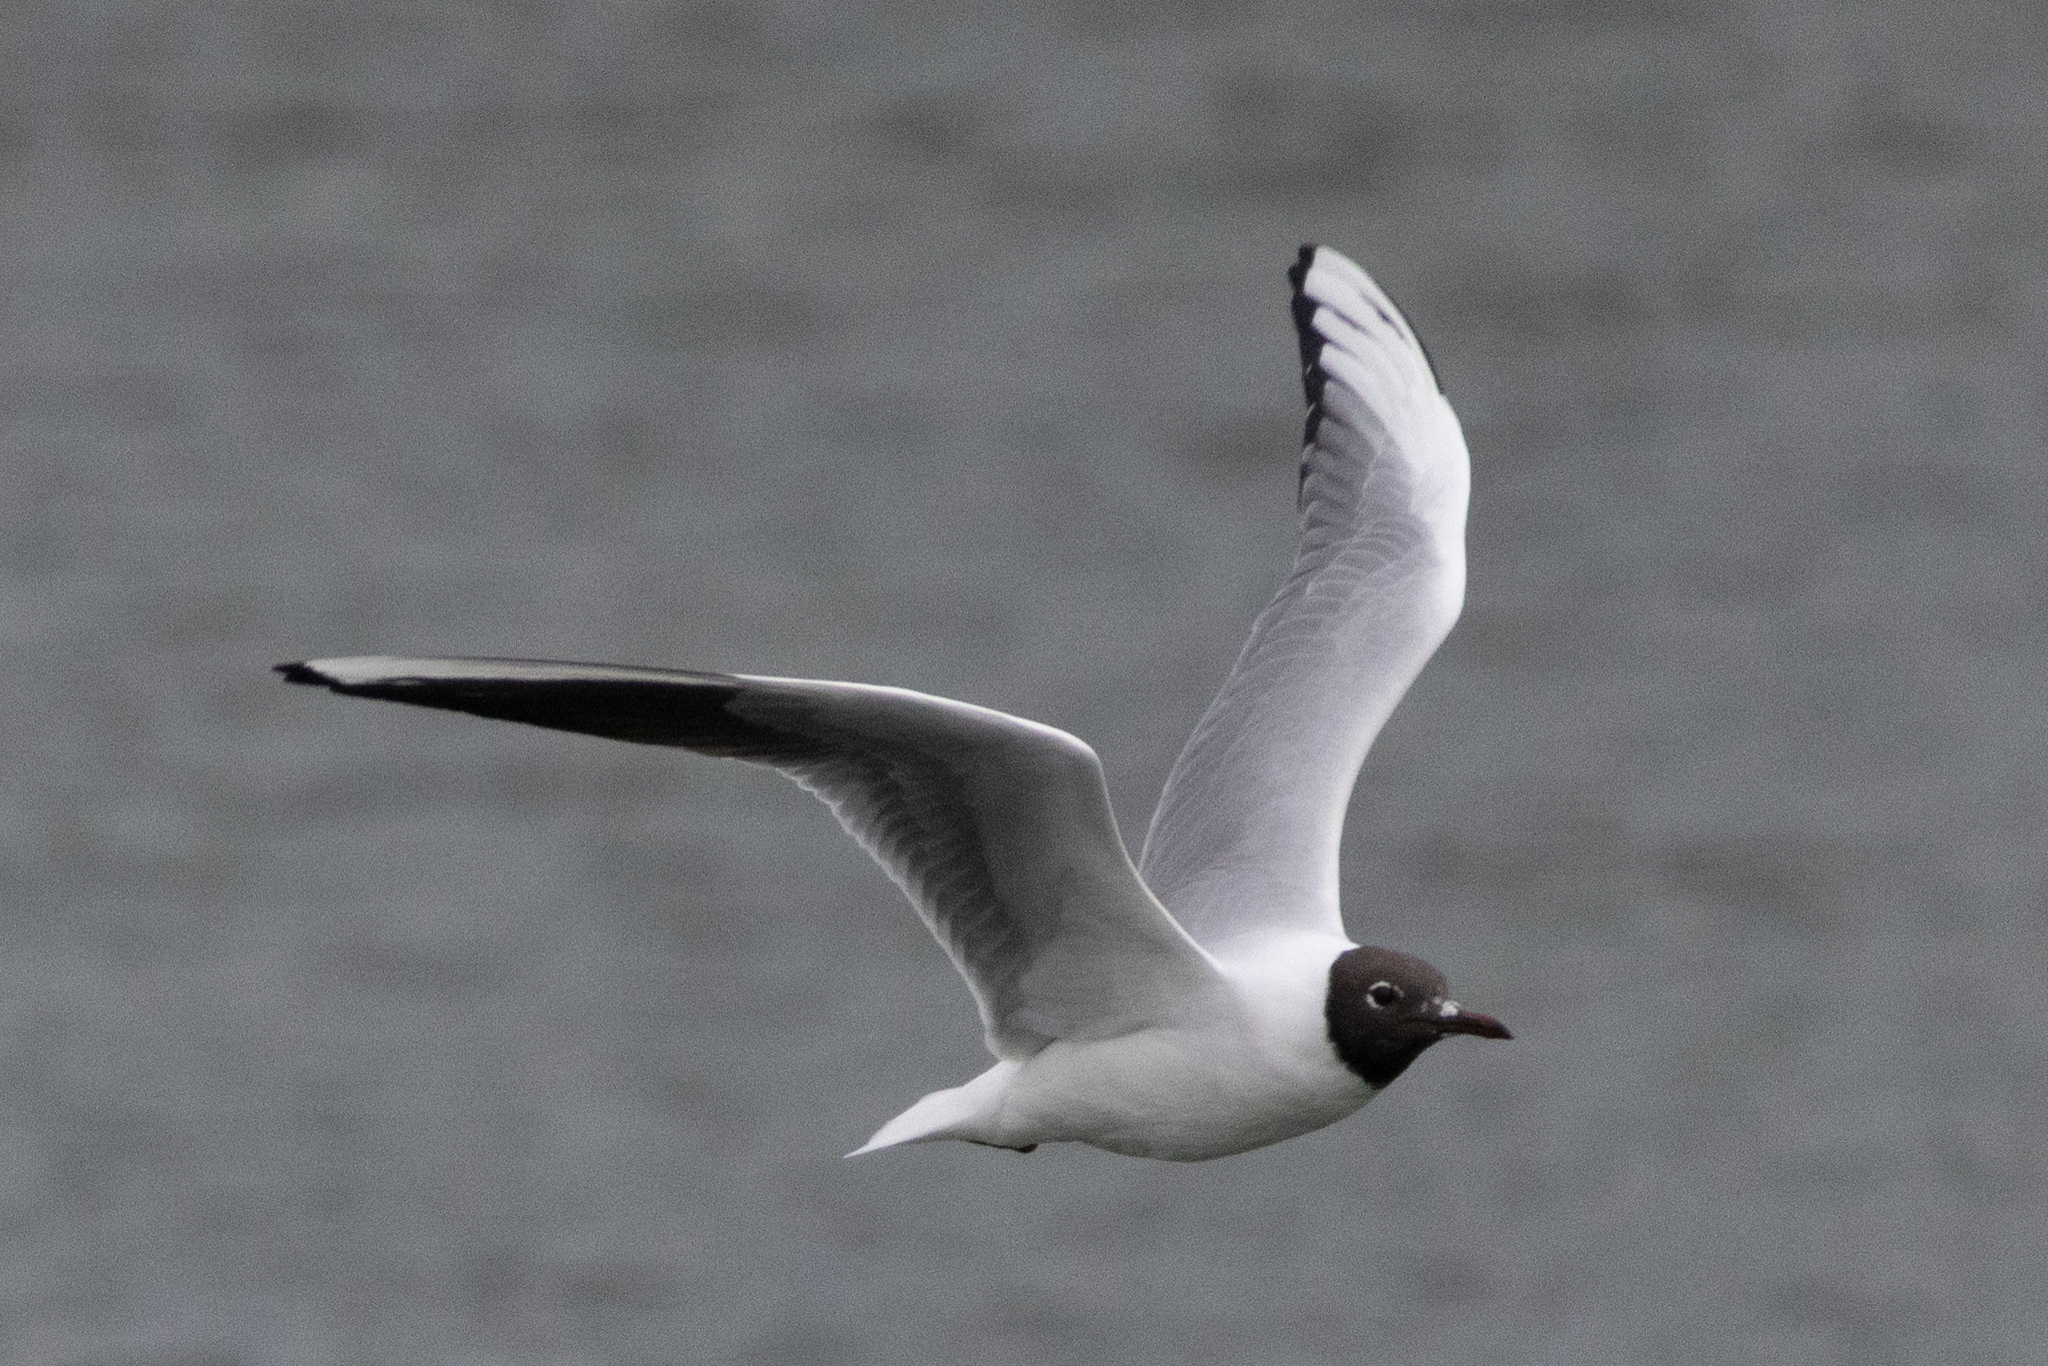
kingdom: Animalia
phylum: Chordata
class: Aves
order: Charadriiformes
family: Laridae
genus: Chroicocephalus
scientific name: Chroicocephalus ridibundus
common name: Black-headed gull
